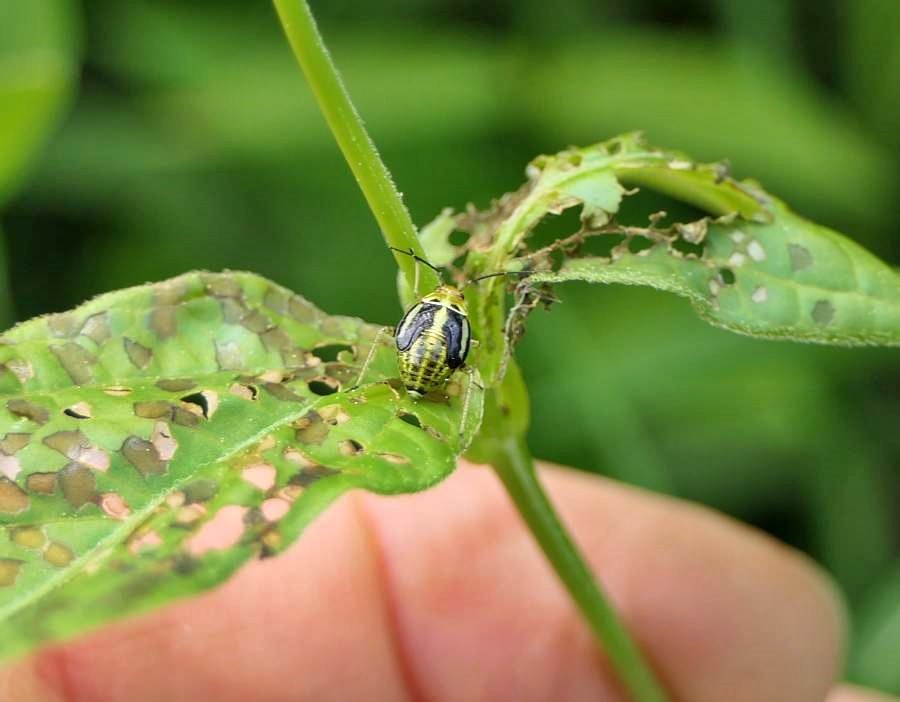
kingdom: Animalia
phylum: Arthropoda
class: Insecta
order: Hemiptera
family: Miridae
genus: Poecilocapsus
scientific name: Poecilocapsus lineatus
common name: Four-lined plant bug
